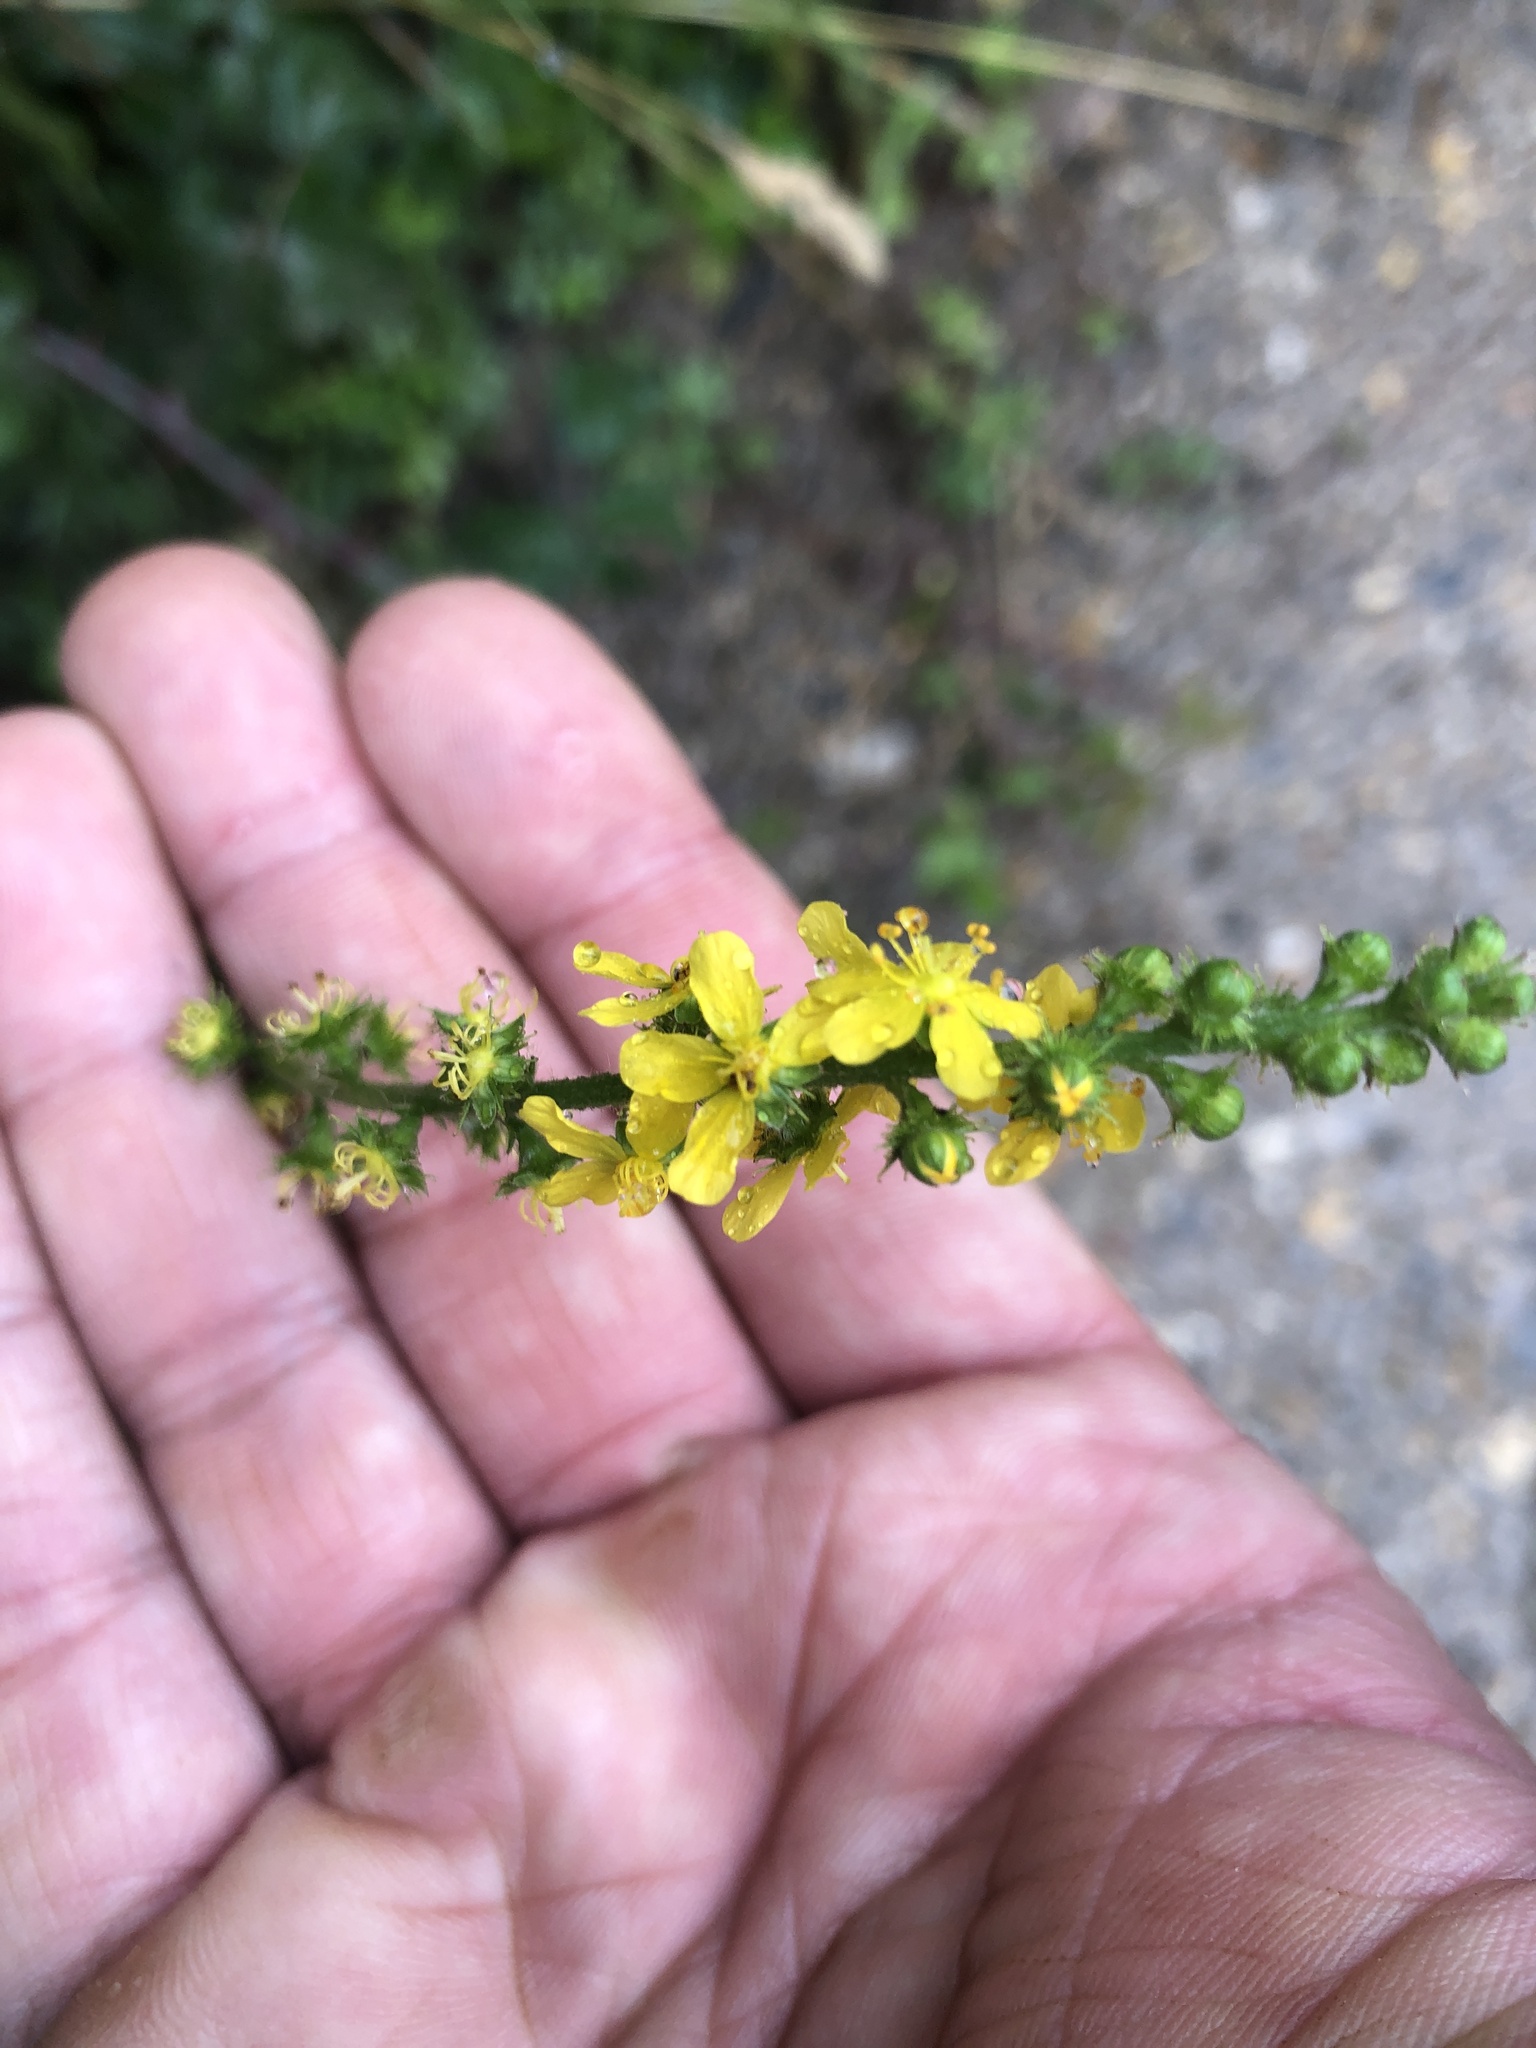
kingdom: Plantae
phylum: Tracheophyta
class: Magnoliopsida
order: Rosales
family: Rosaceae
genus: Agrimonia
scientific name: Agrimonia eupatoria
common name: Agrimony
